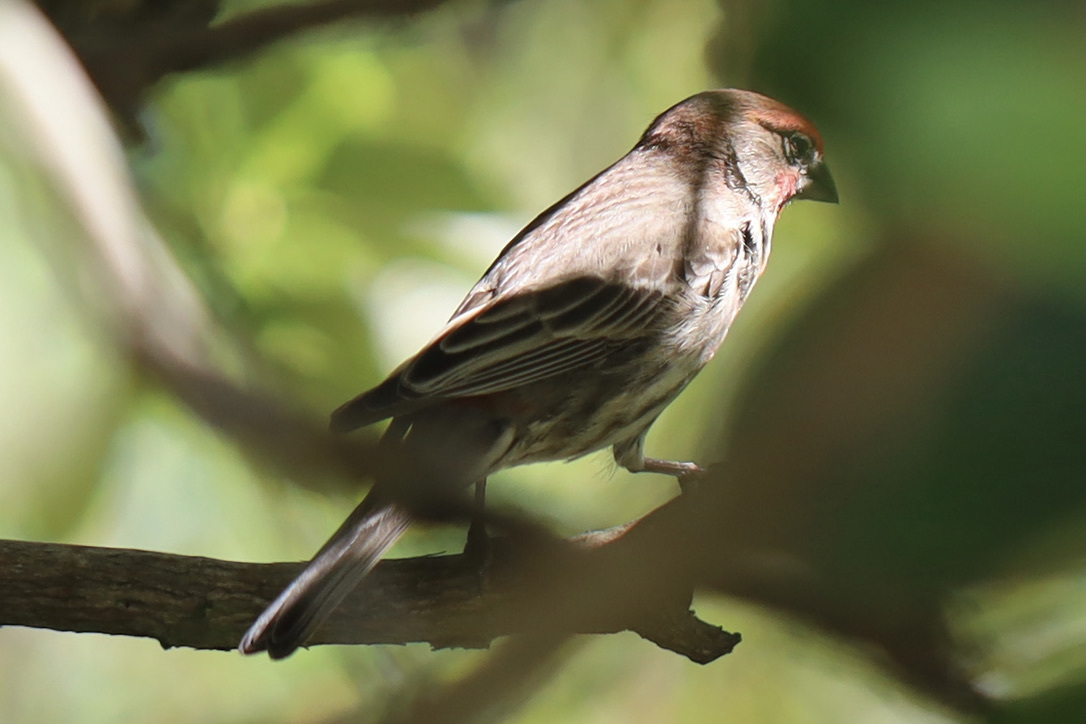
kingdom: Animalia
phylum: Chordata
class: Aves
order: Passeriformes
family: Fringillidae
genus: Haemorhous
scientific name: Haemorhous mexicanus
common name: House finch
